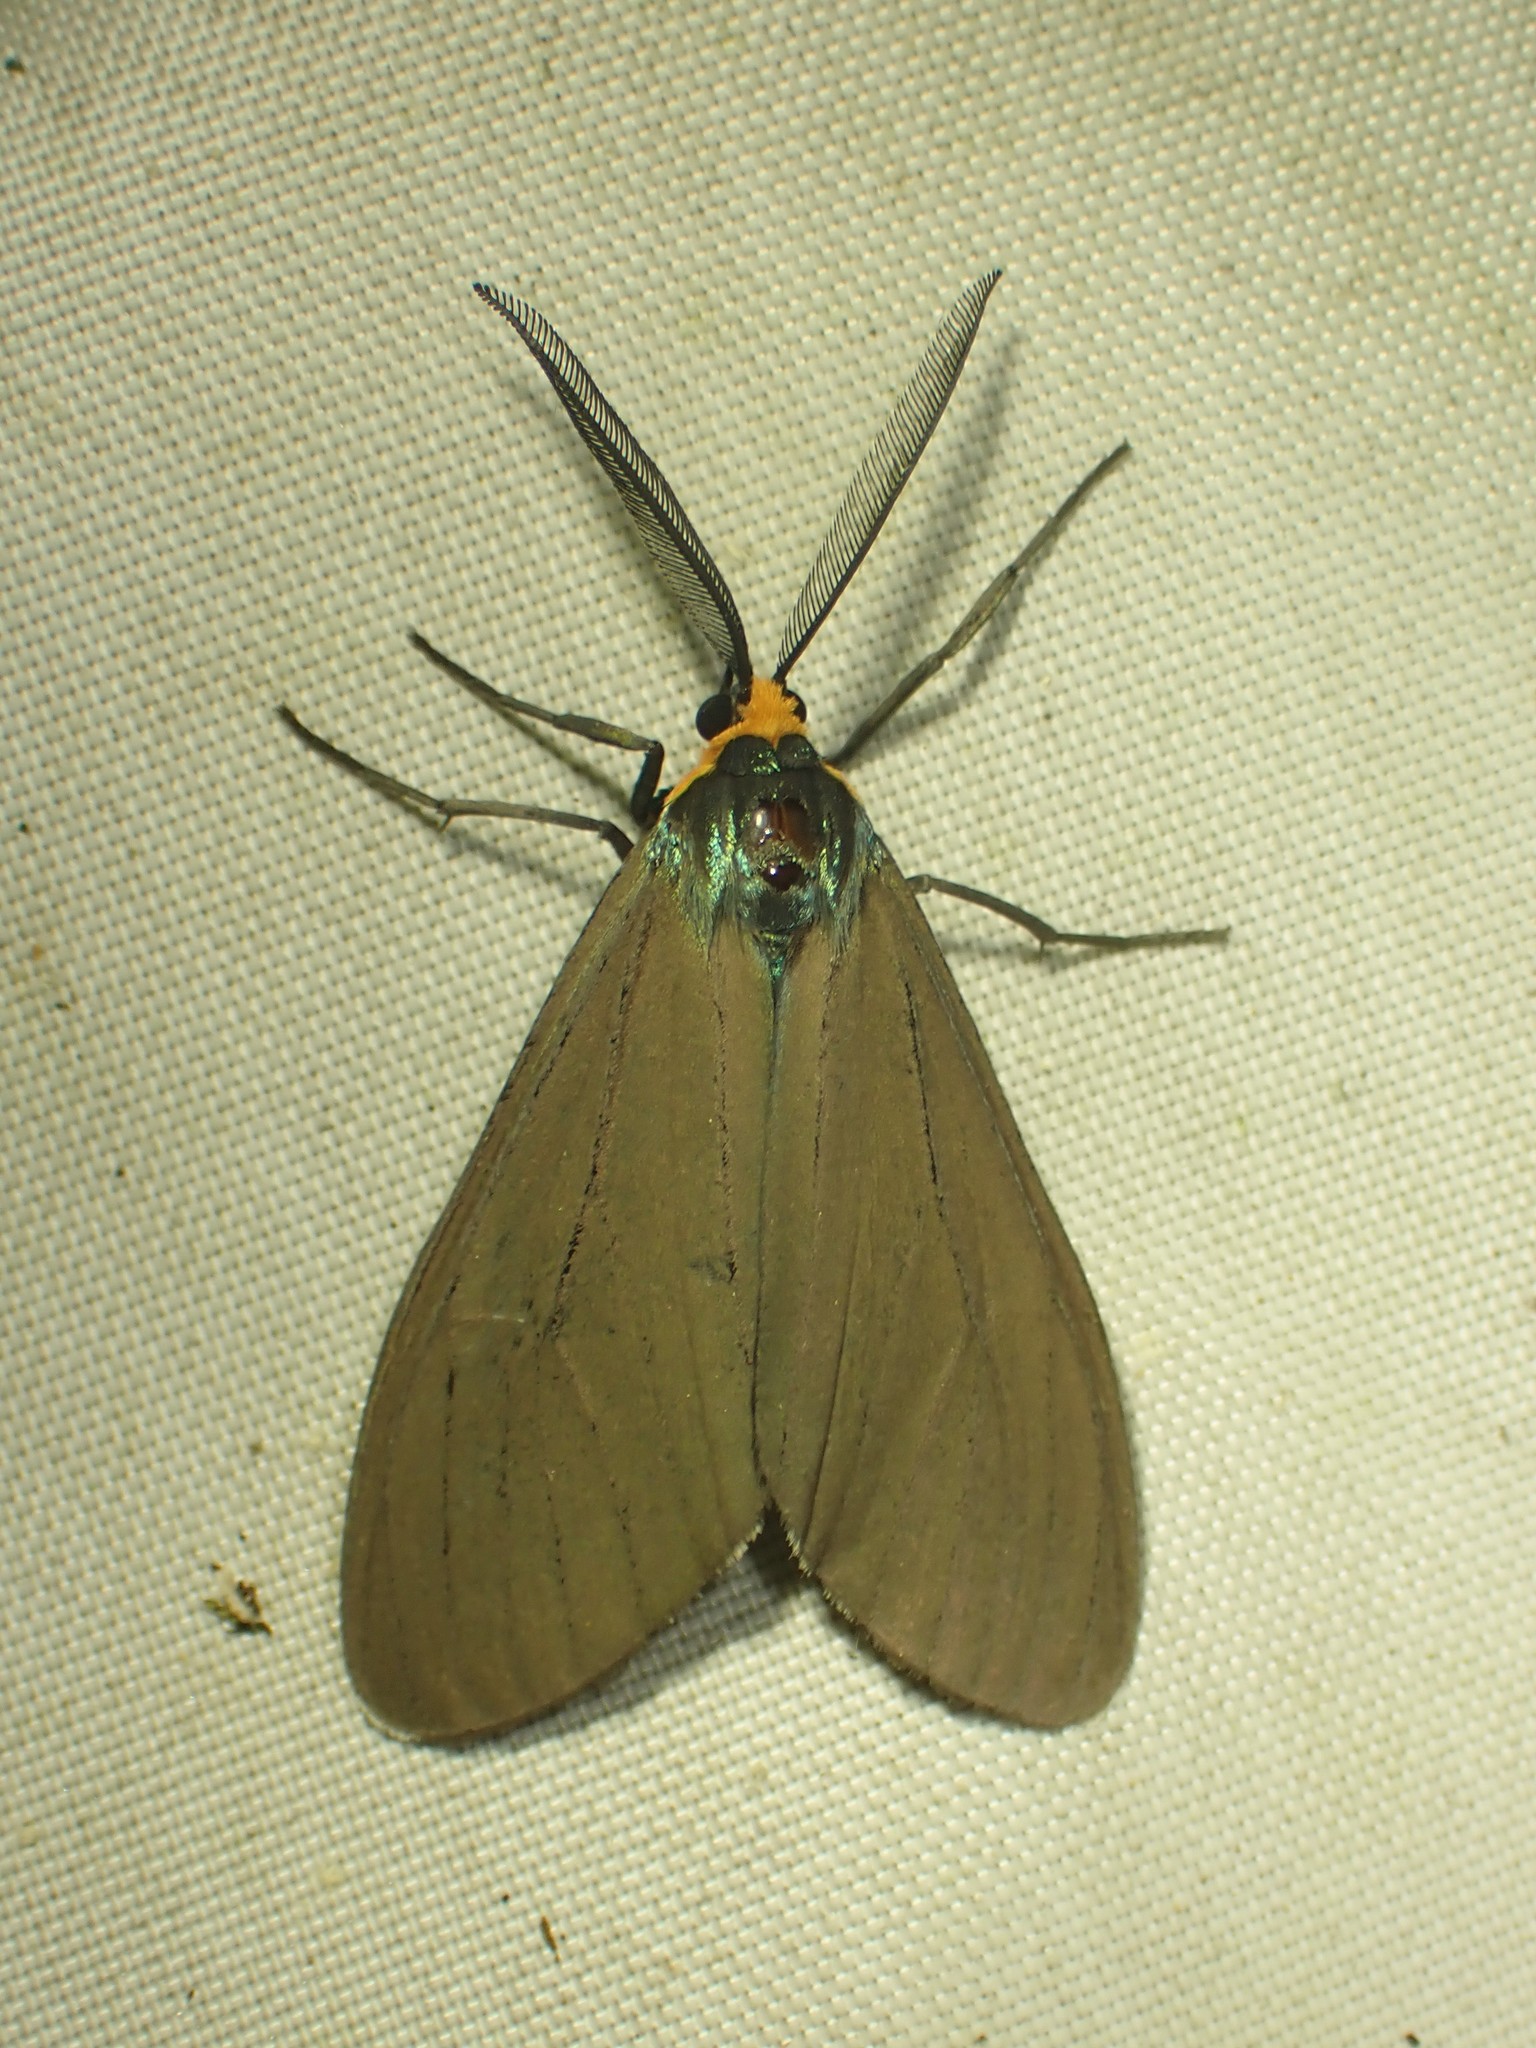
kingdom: Animalia
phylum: Arthropoda
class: Insecta
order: Lepidoptera
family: Erebidae
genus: Ctenucha
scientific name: Ctenucha virginica
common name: Virginia ctenucha moth
